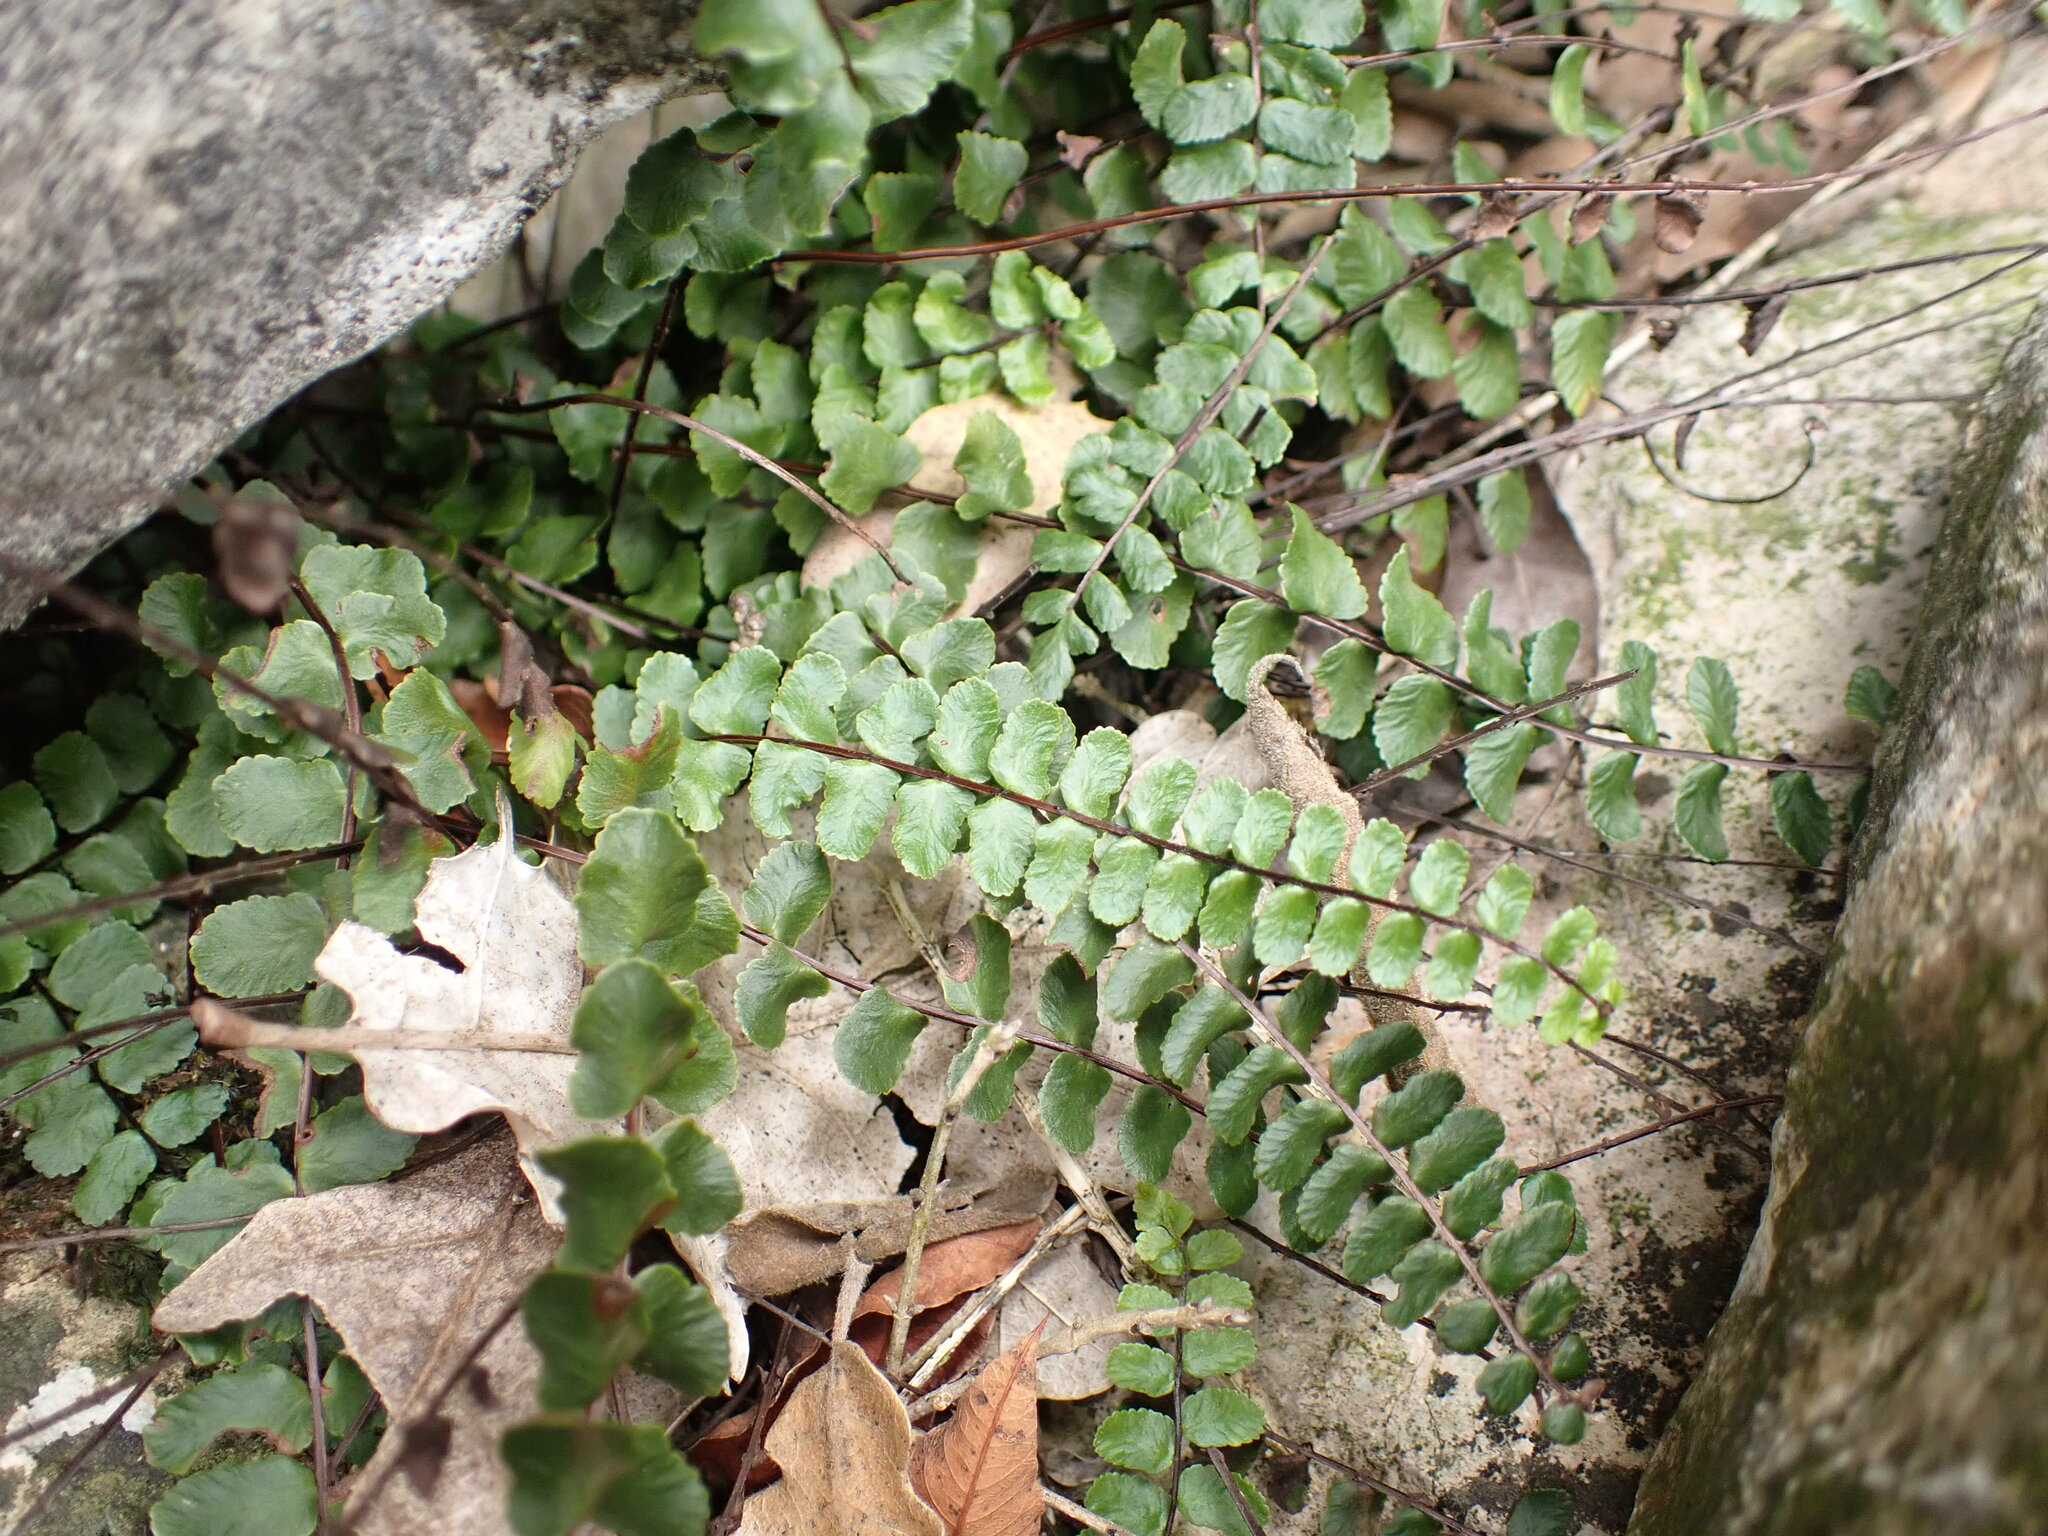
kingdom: Plantae
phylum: Tracheophyta
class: Polypodiopsida
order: Polypodiales
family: Aspleniaceae
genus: Asplenium
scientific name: Asplenium trichomanes
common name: Maidenhair spleenwort
